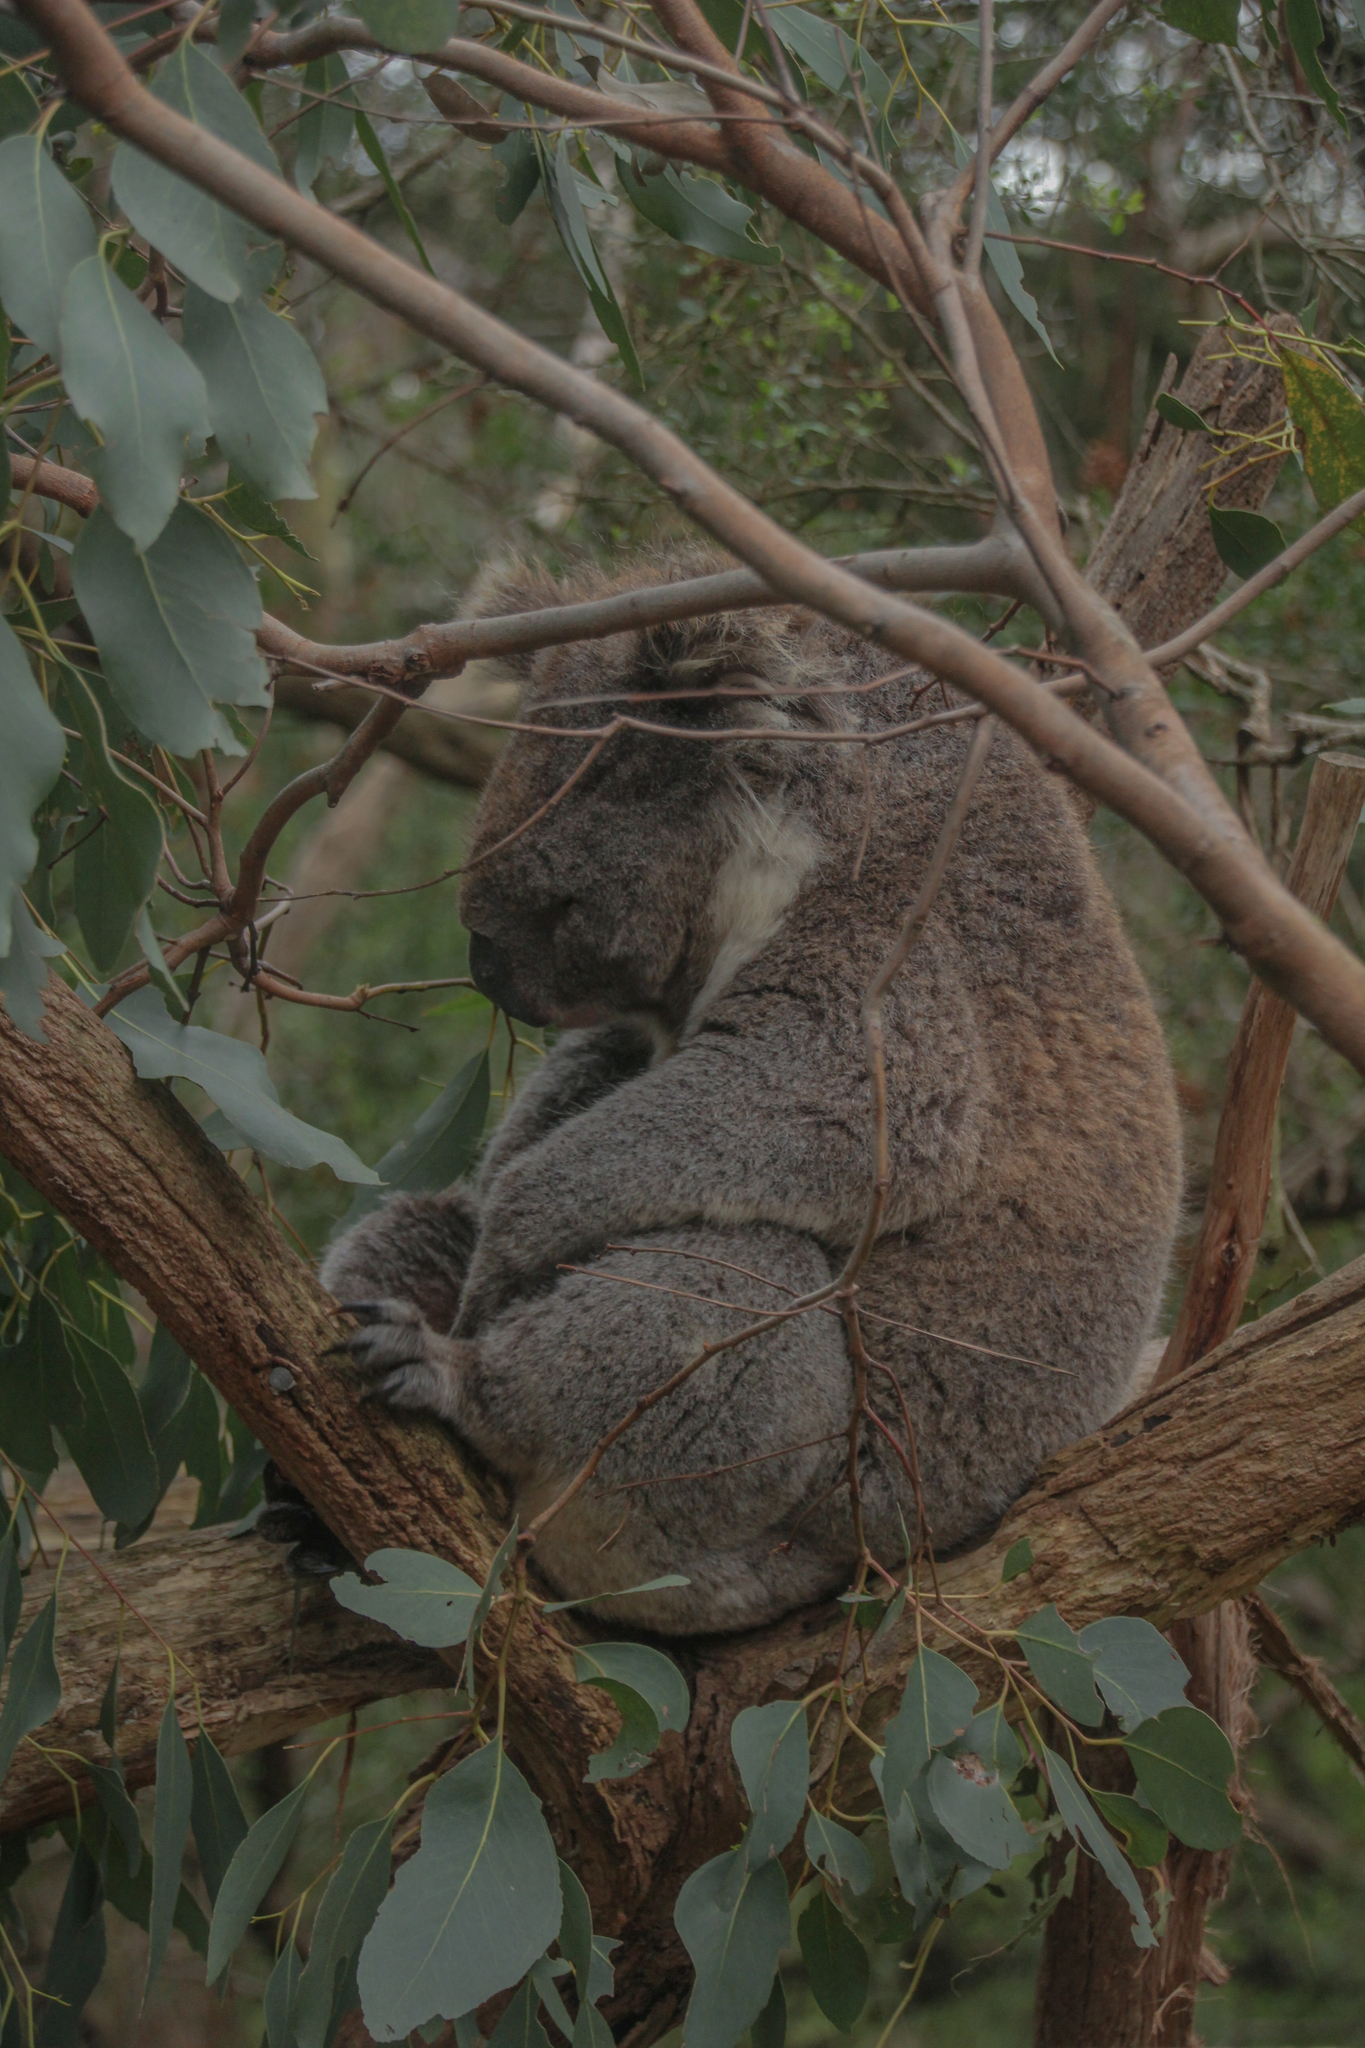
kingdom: Animalia
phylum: Chordata
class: Mammalia
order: Diprotodontia
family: Phascolarctidae
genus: Phascolarctos
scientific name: Phascolarctos cinereus
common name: Koala
